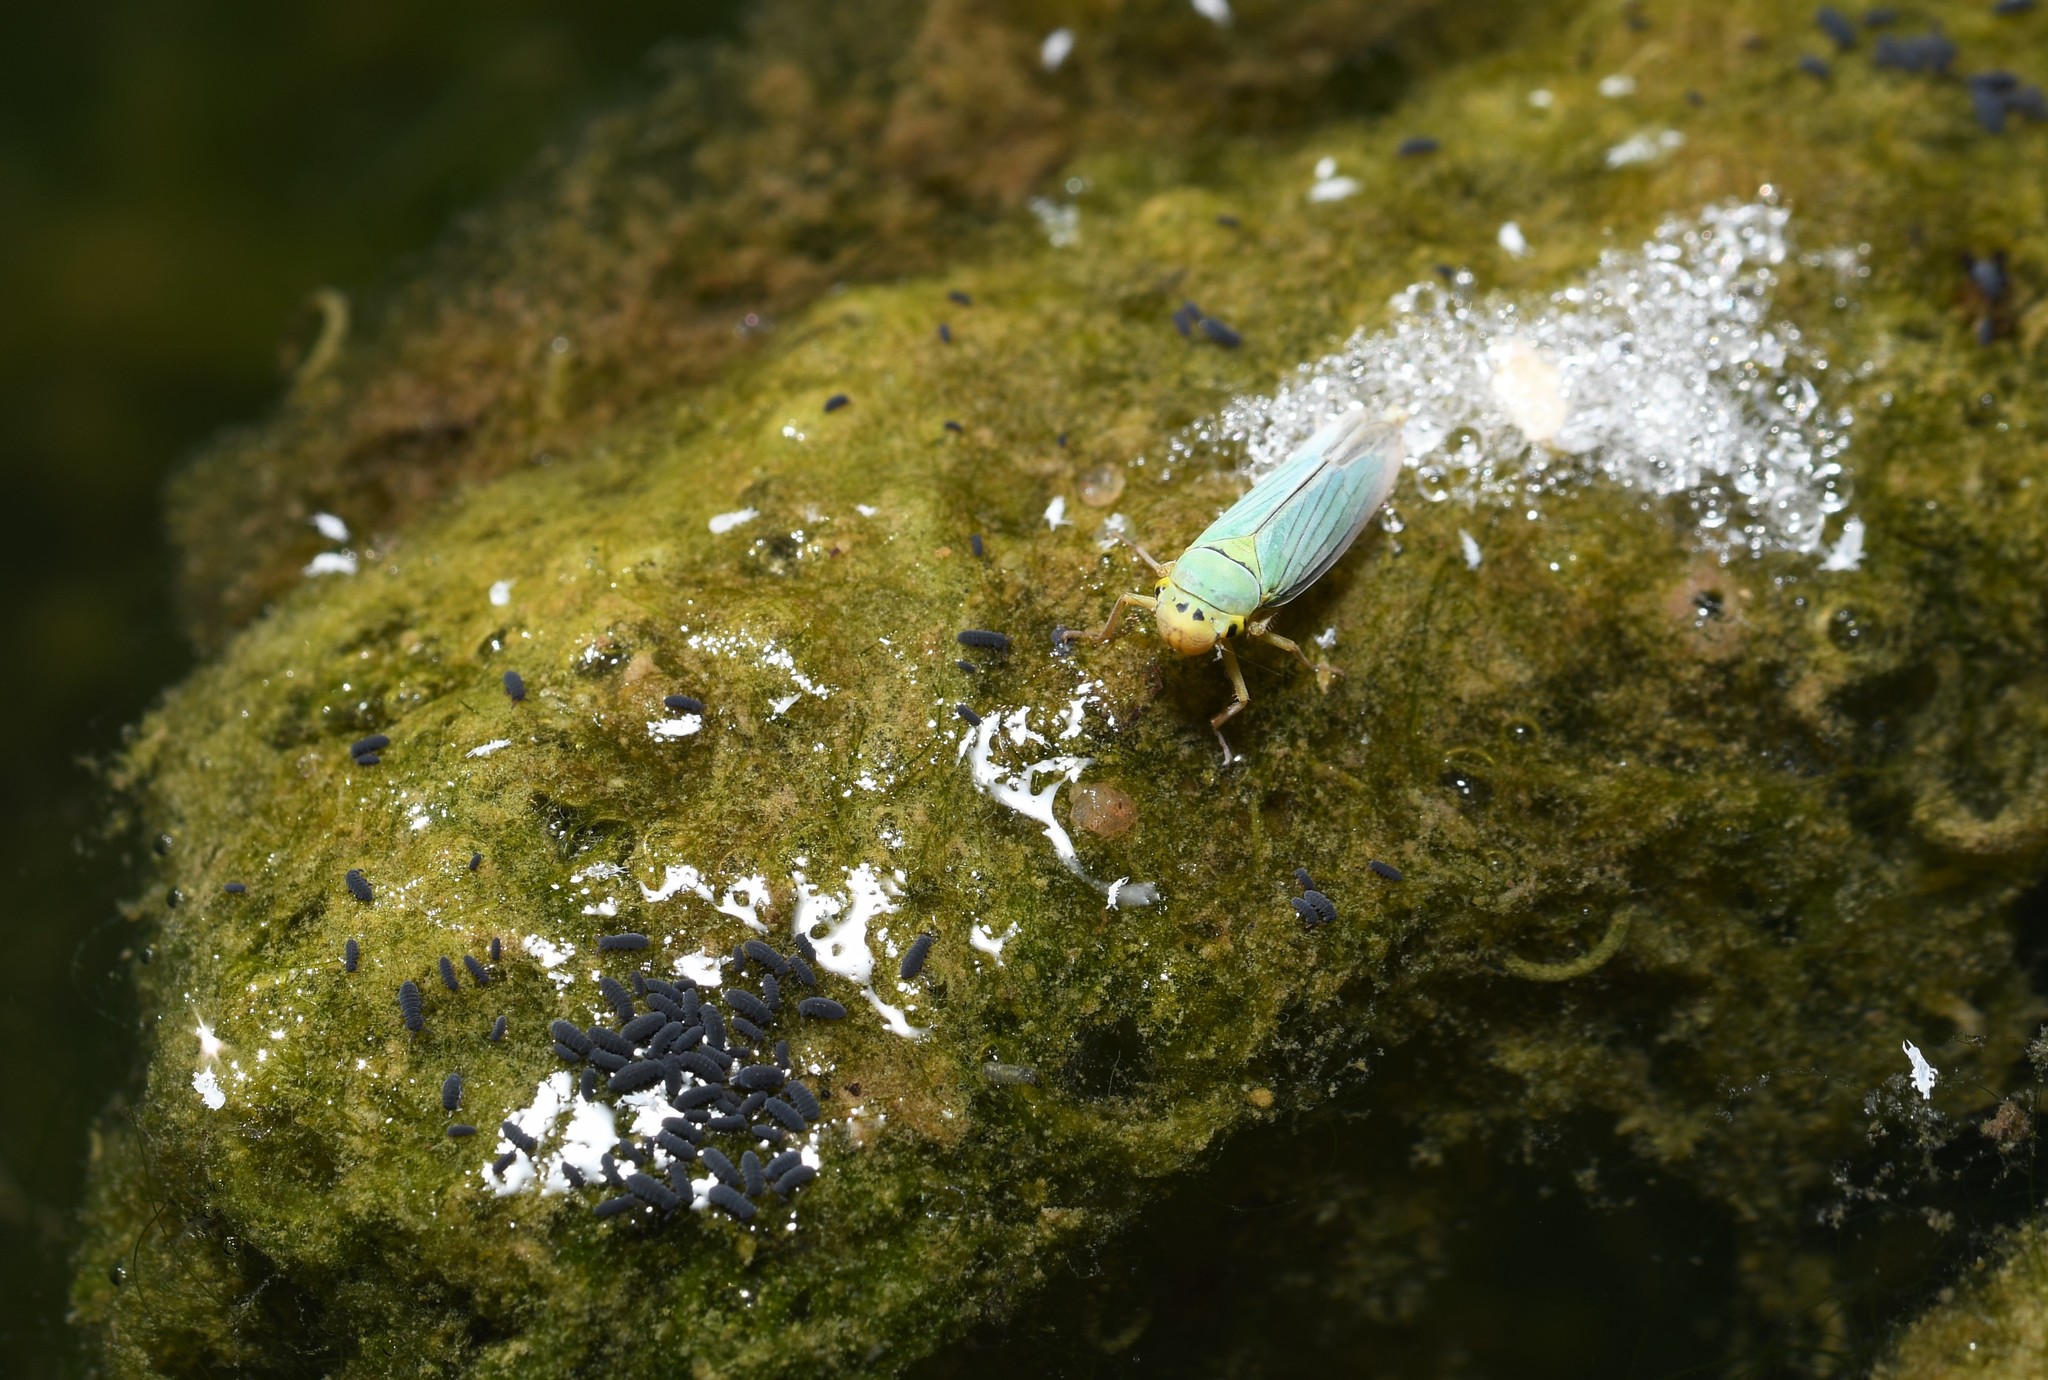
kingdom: Animalia
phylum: Arthropoda
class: Insecta
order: Hemiptera
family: Cicadellidae
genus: Cicadella
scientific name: Cicadella viridis
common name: Leafhopper
